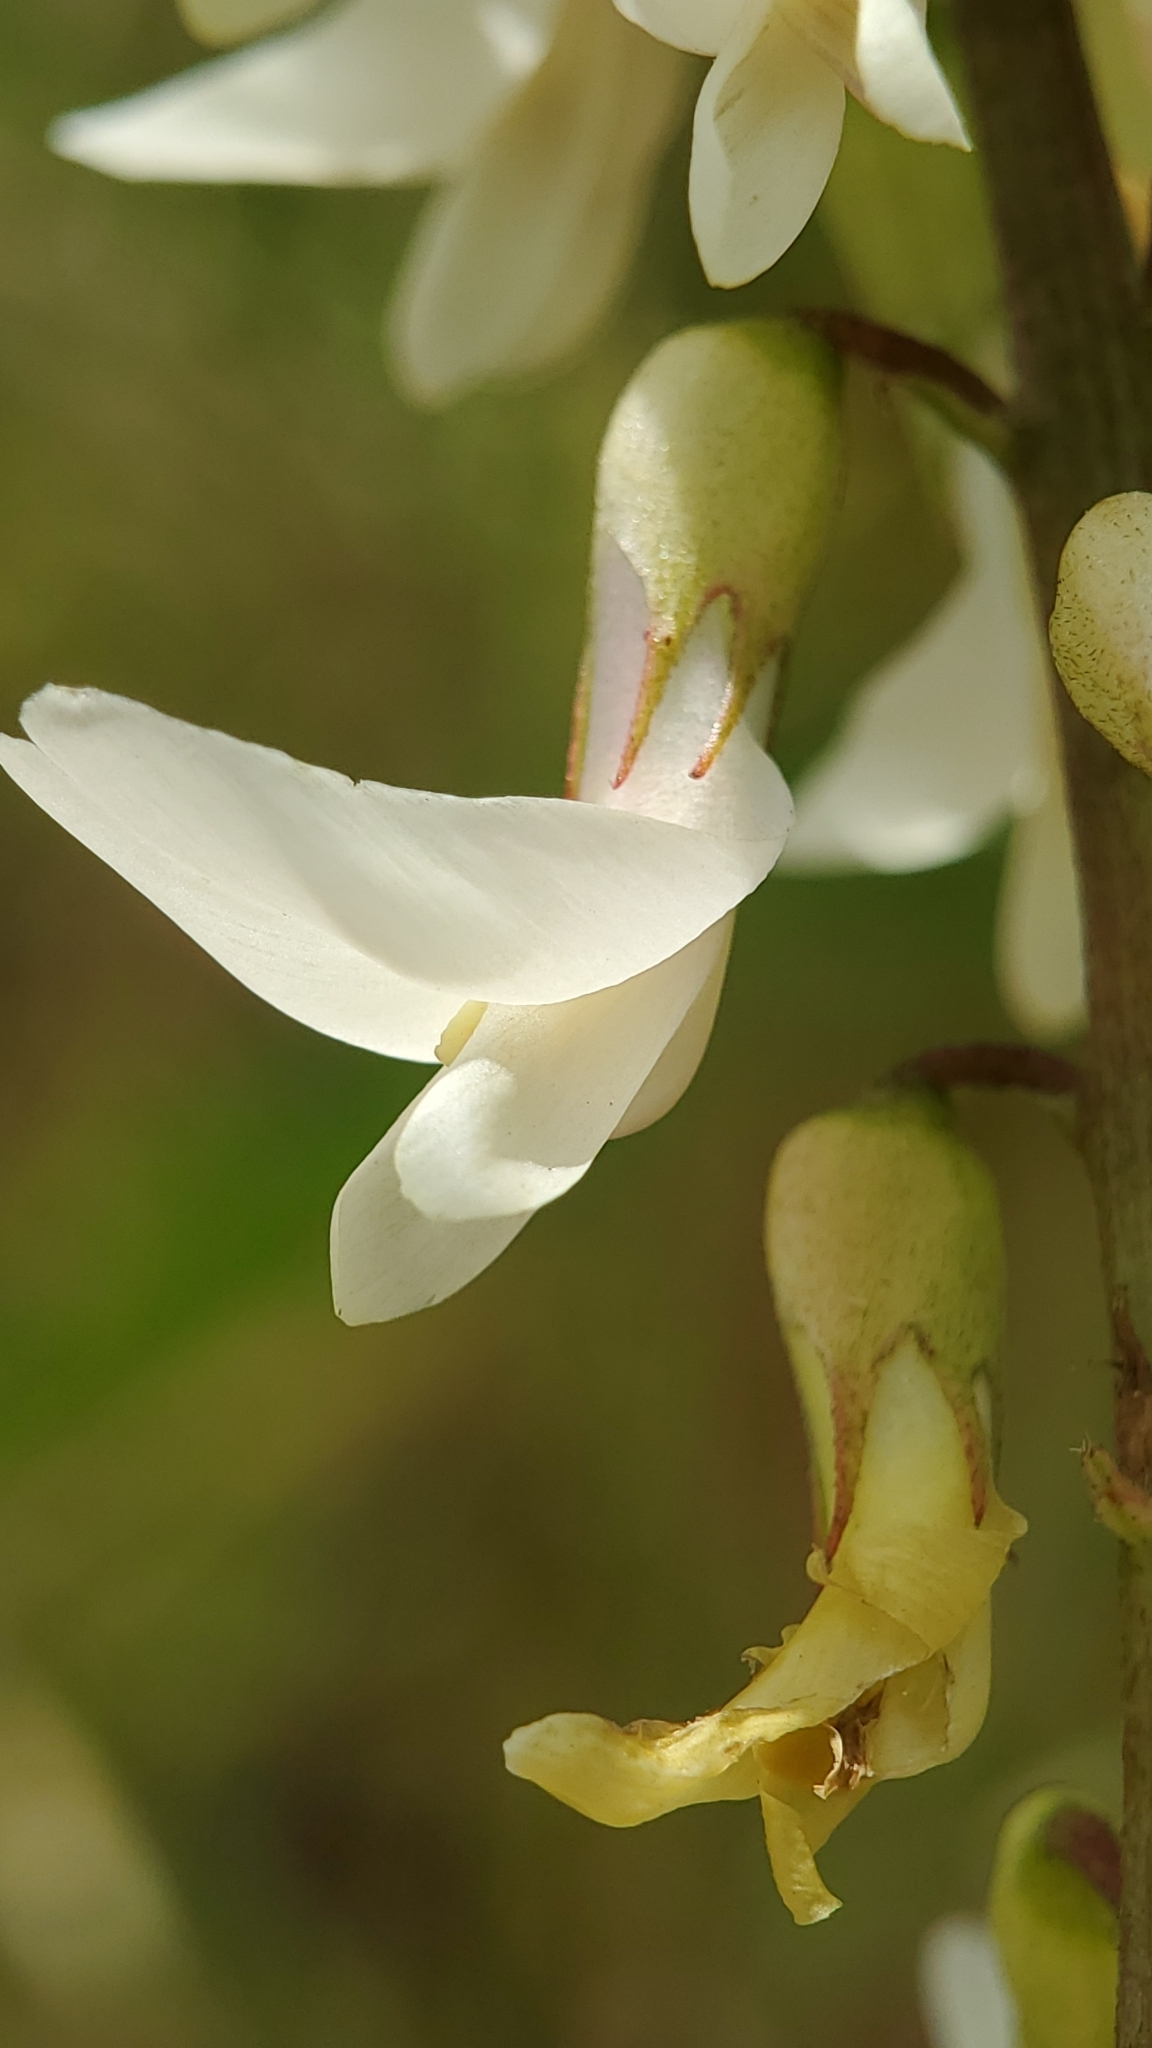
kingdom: Plantae
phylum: Tracheophyta
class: Magnoliopsida
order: Fabales
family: Fabaceae
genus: Astragalus
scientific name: Astragalus trichopodus
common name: Santa barbara milk-vetch
